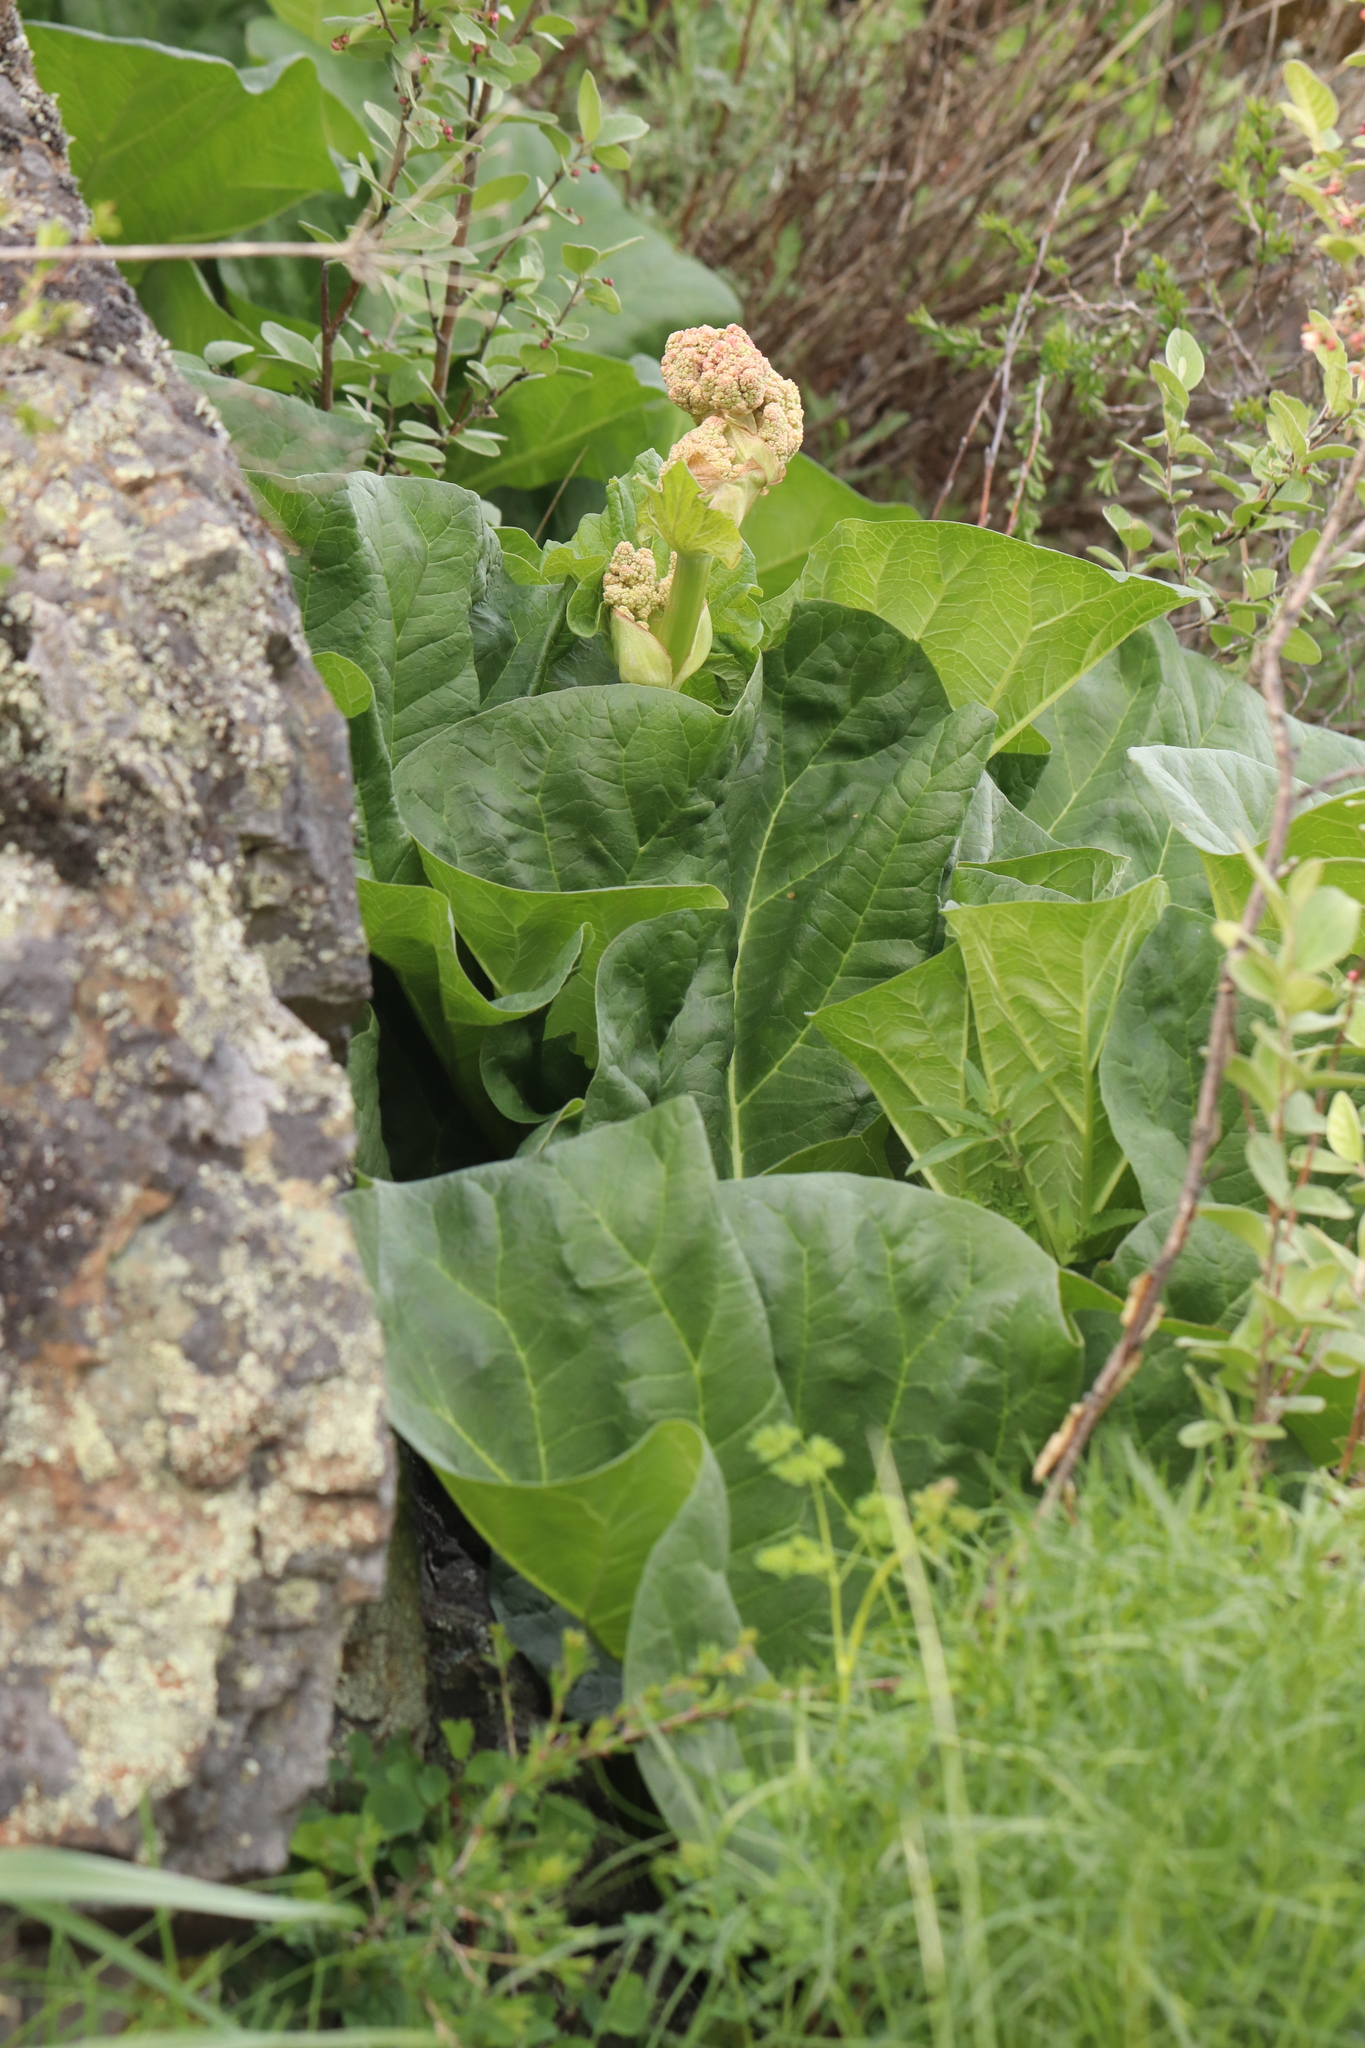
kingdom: Plantae
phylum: Tracheophyta
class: Magnoliopsida
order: Caryophyllales
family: Polygonaceae
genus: Rheum
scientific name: Rheum compactum
